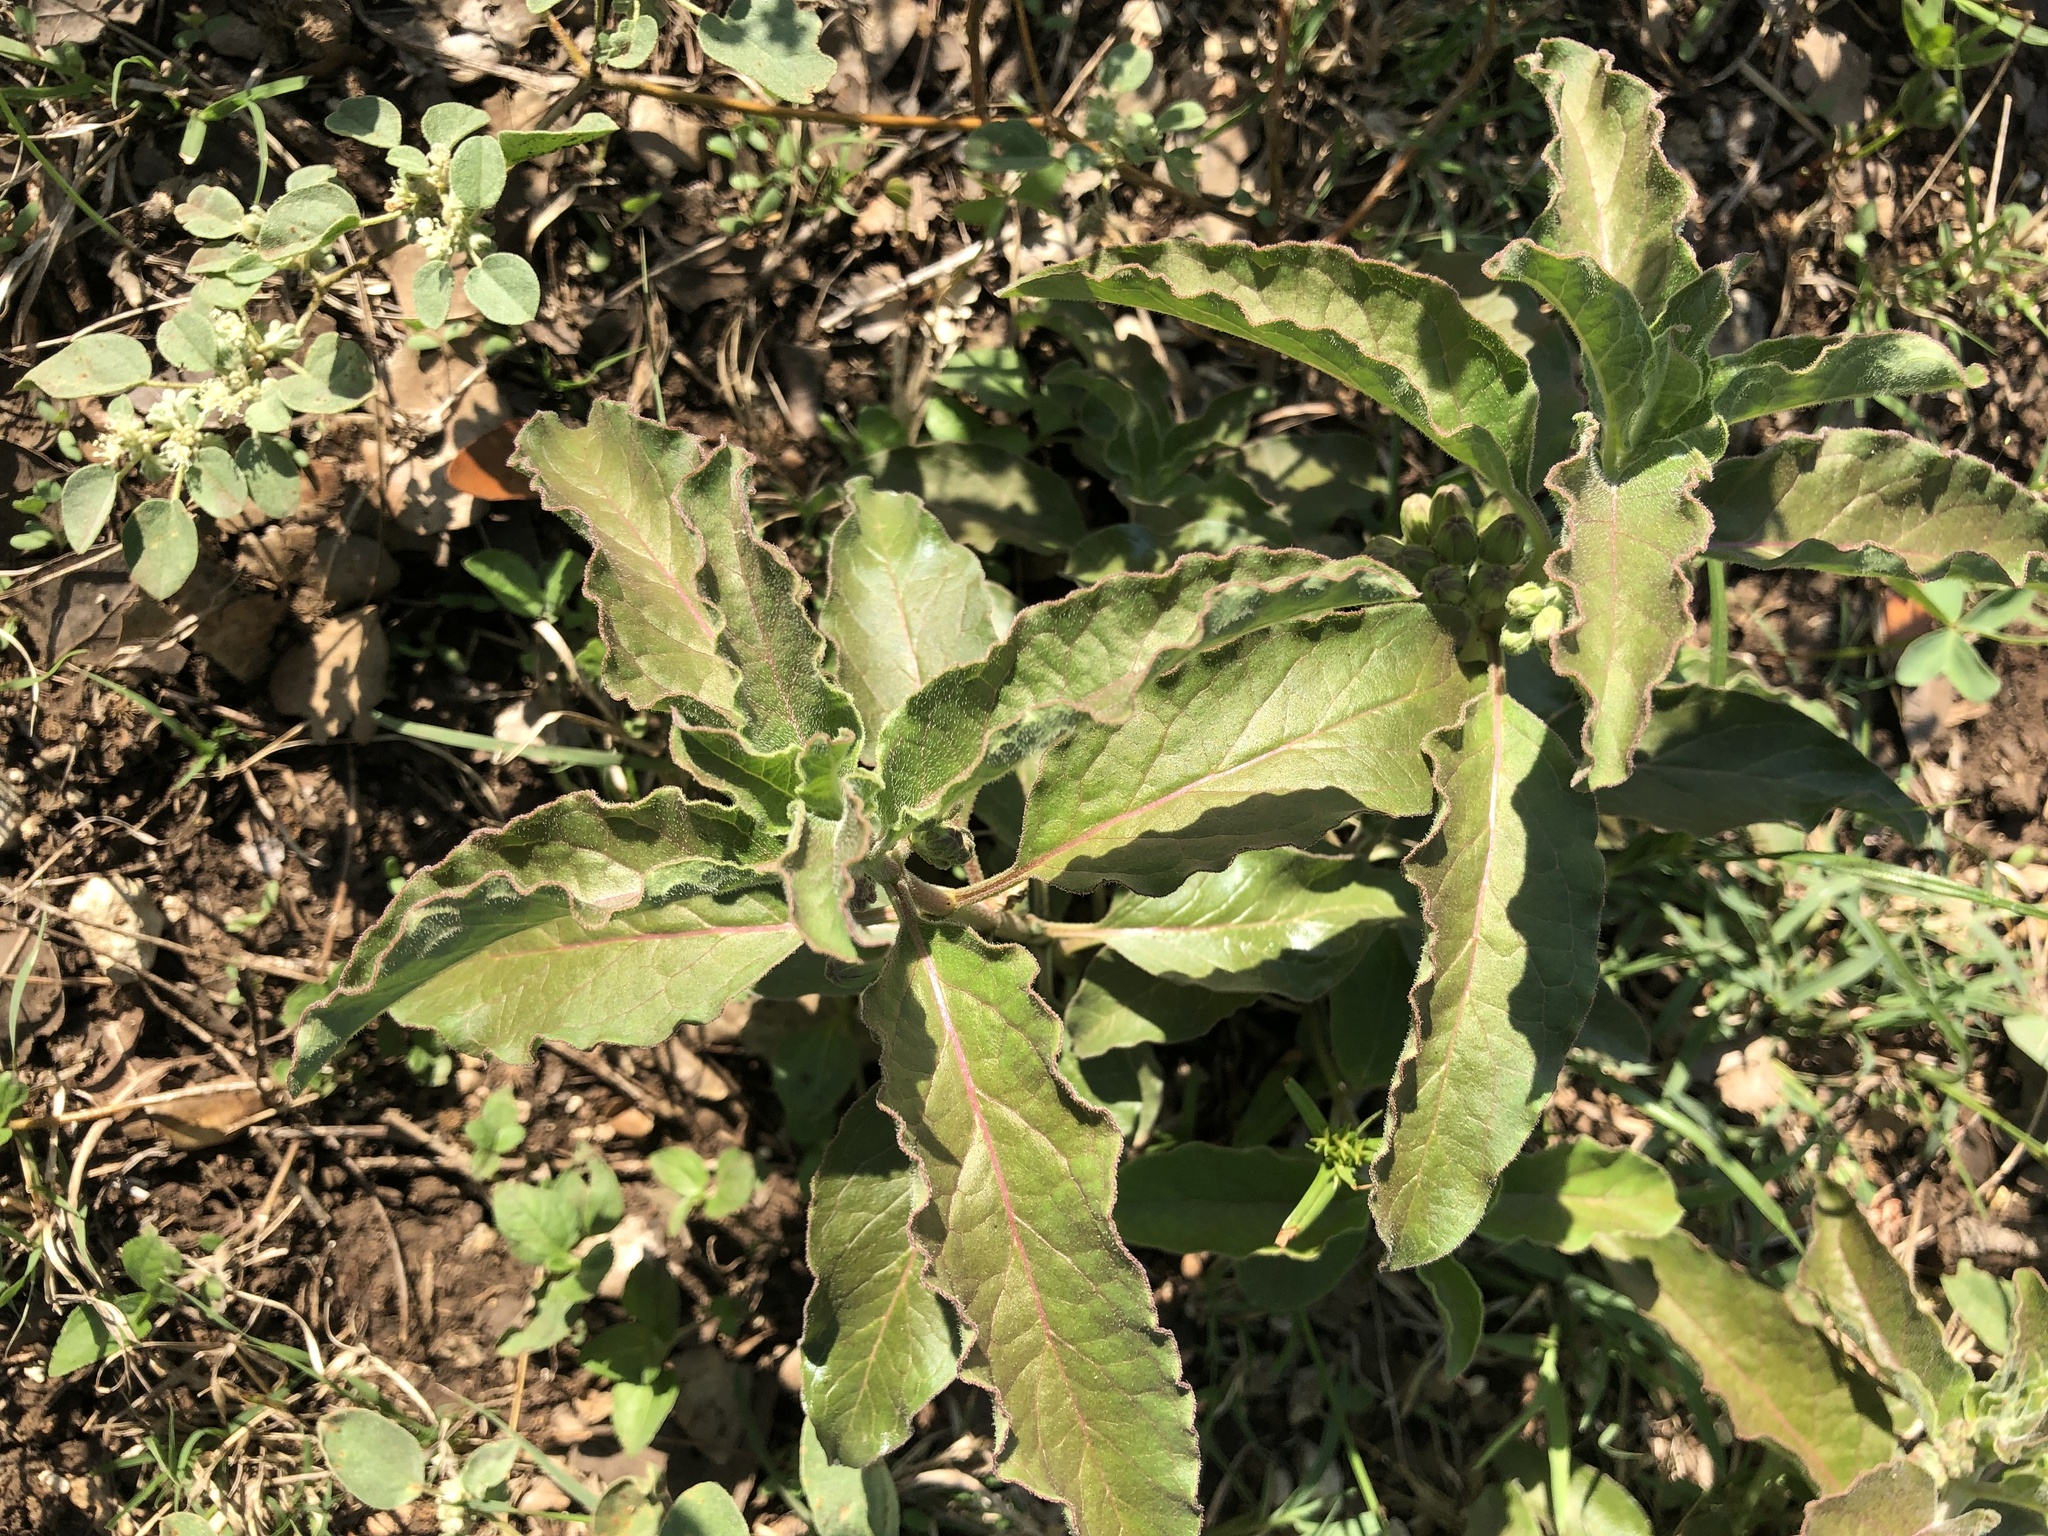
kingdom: Plantae
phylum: Tracheophyta
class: Magnoliopsida
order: Gentianales
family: Apocynaceae
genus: Asclepias
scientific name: Asclepias oenotheroides
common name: Zizotes milkweed
